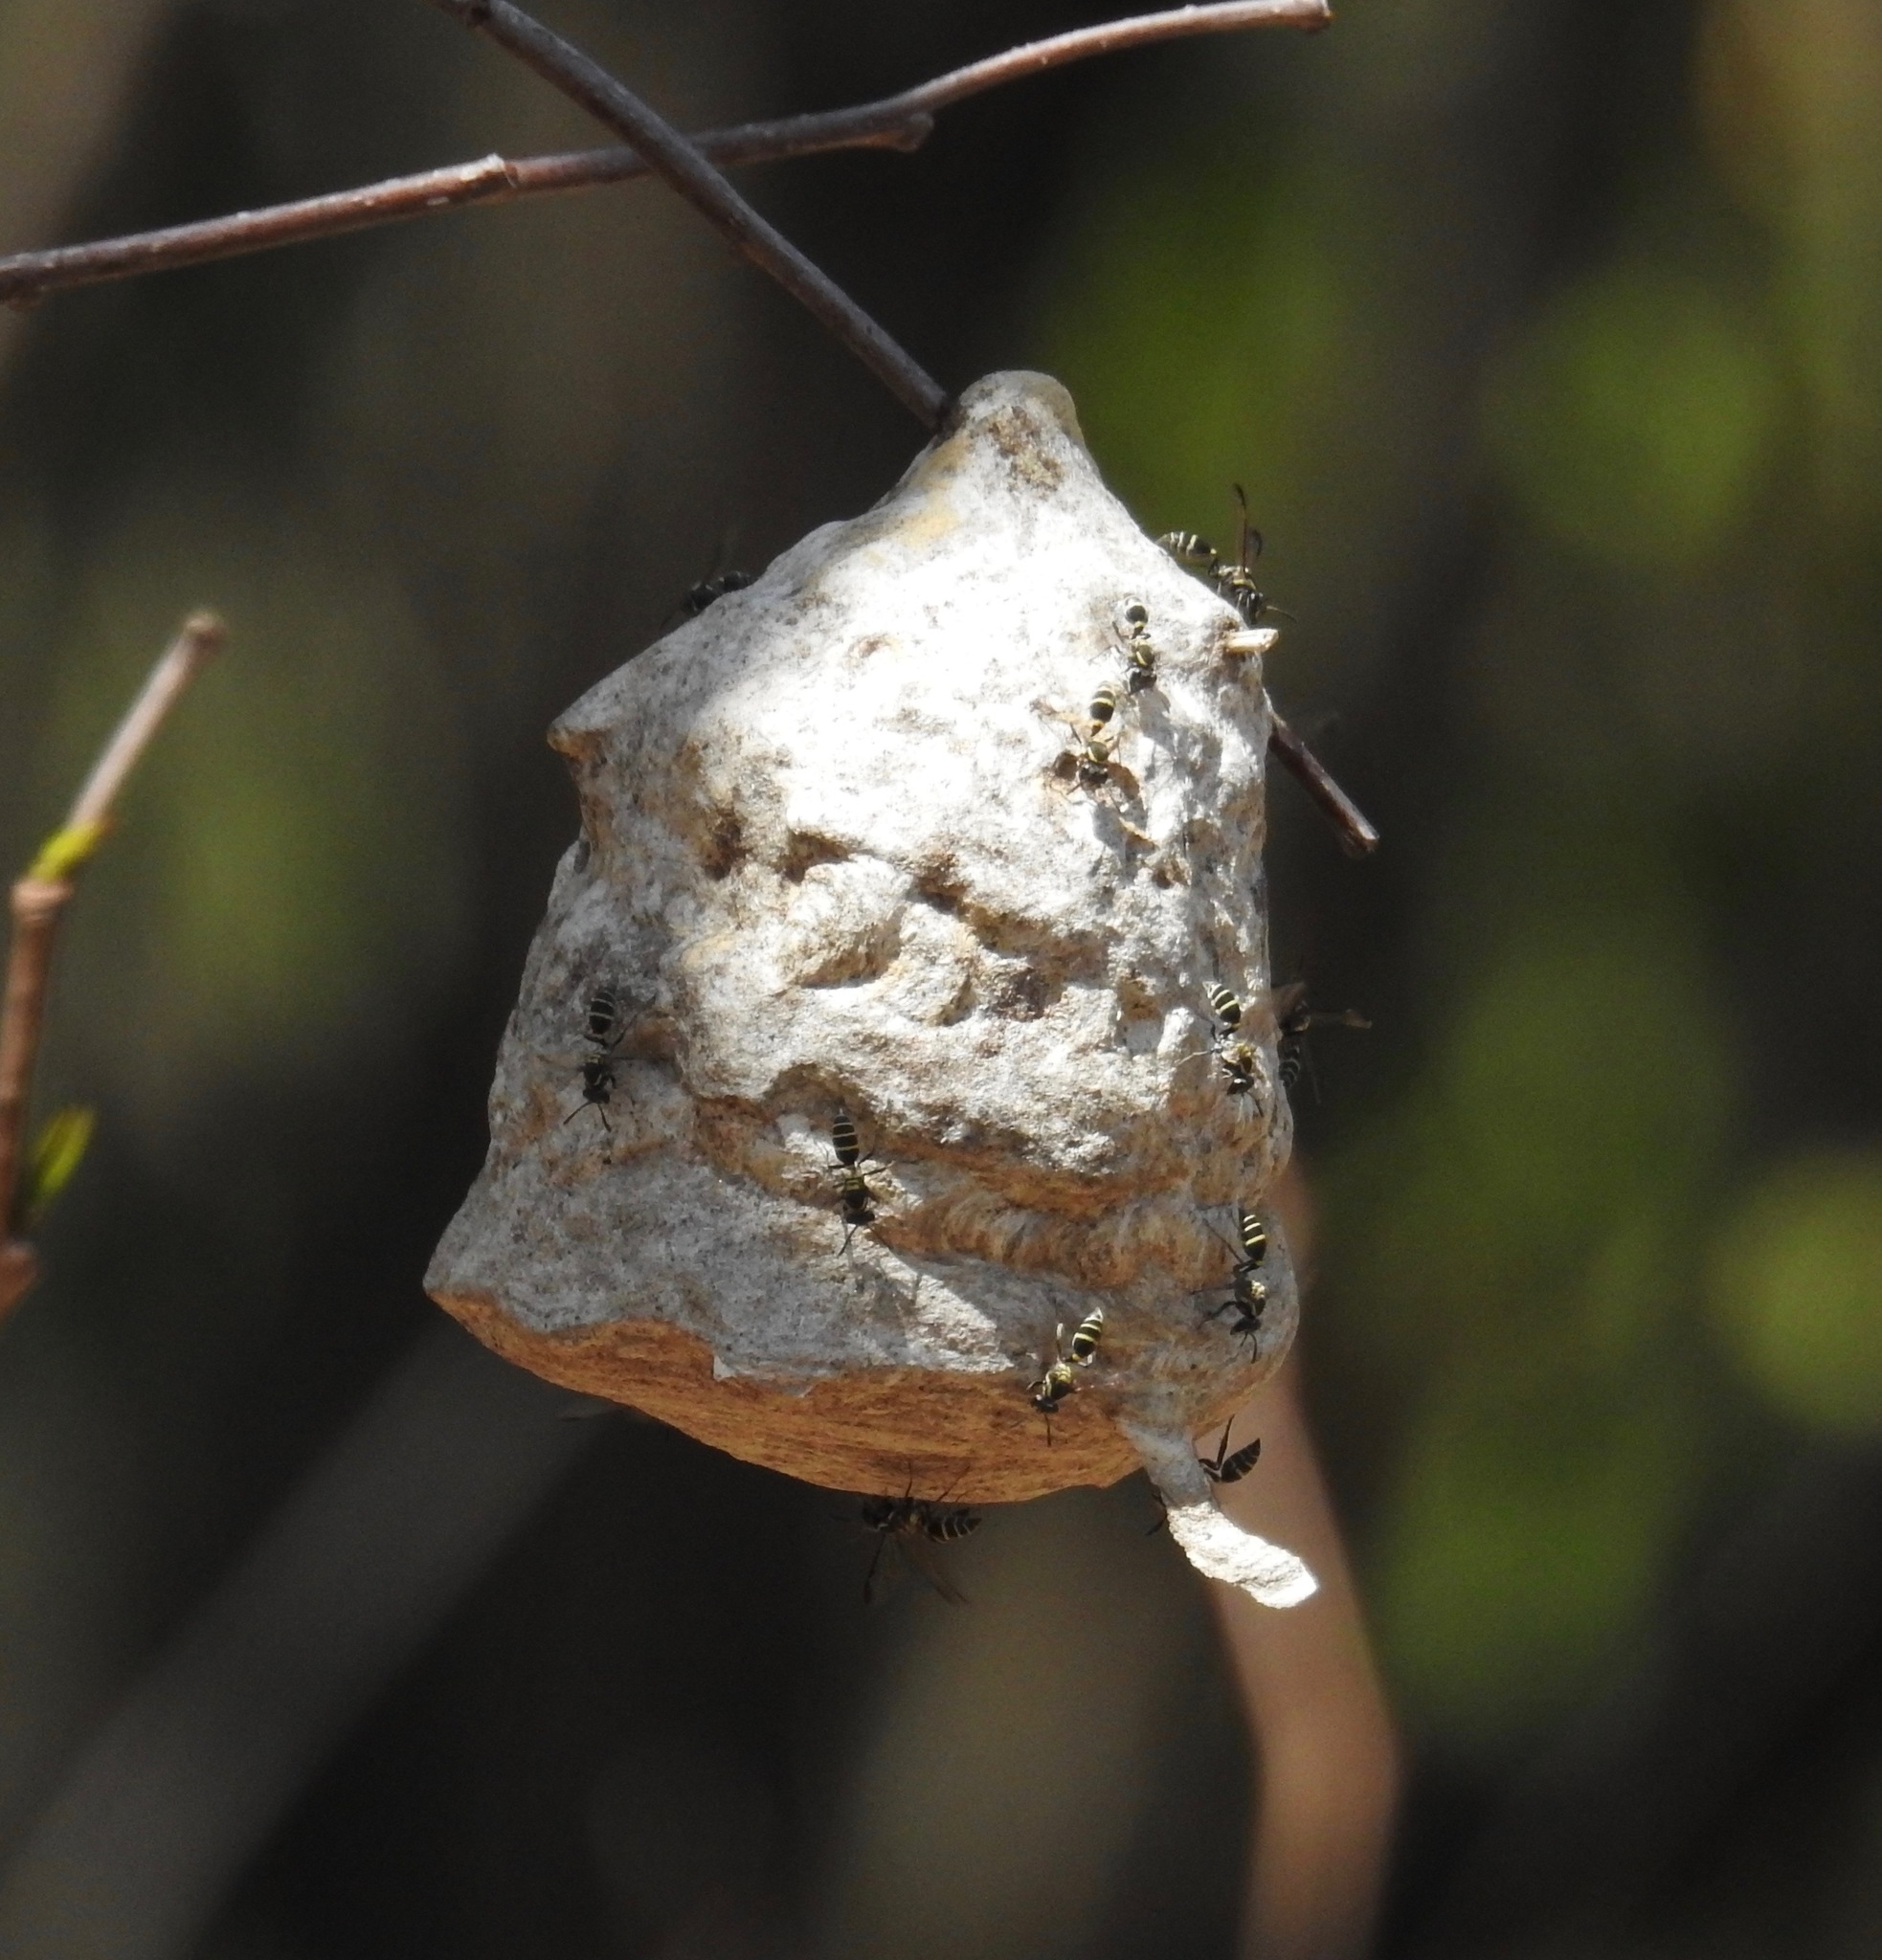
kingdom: Animalia
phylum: Arthropoda
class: Insecta
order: Hymenoptera
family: Eumenidae
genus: Polybia
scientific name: Polybia occidentalis
